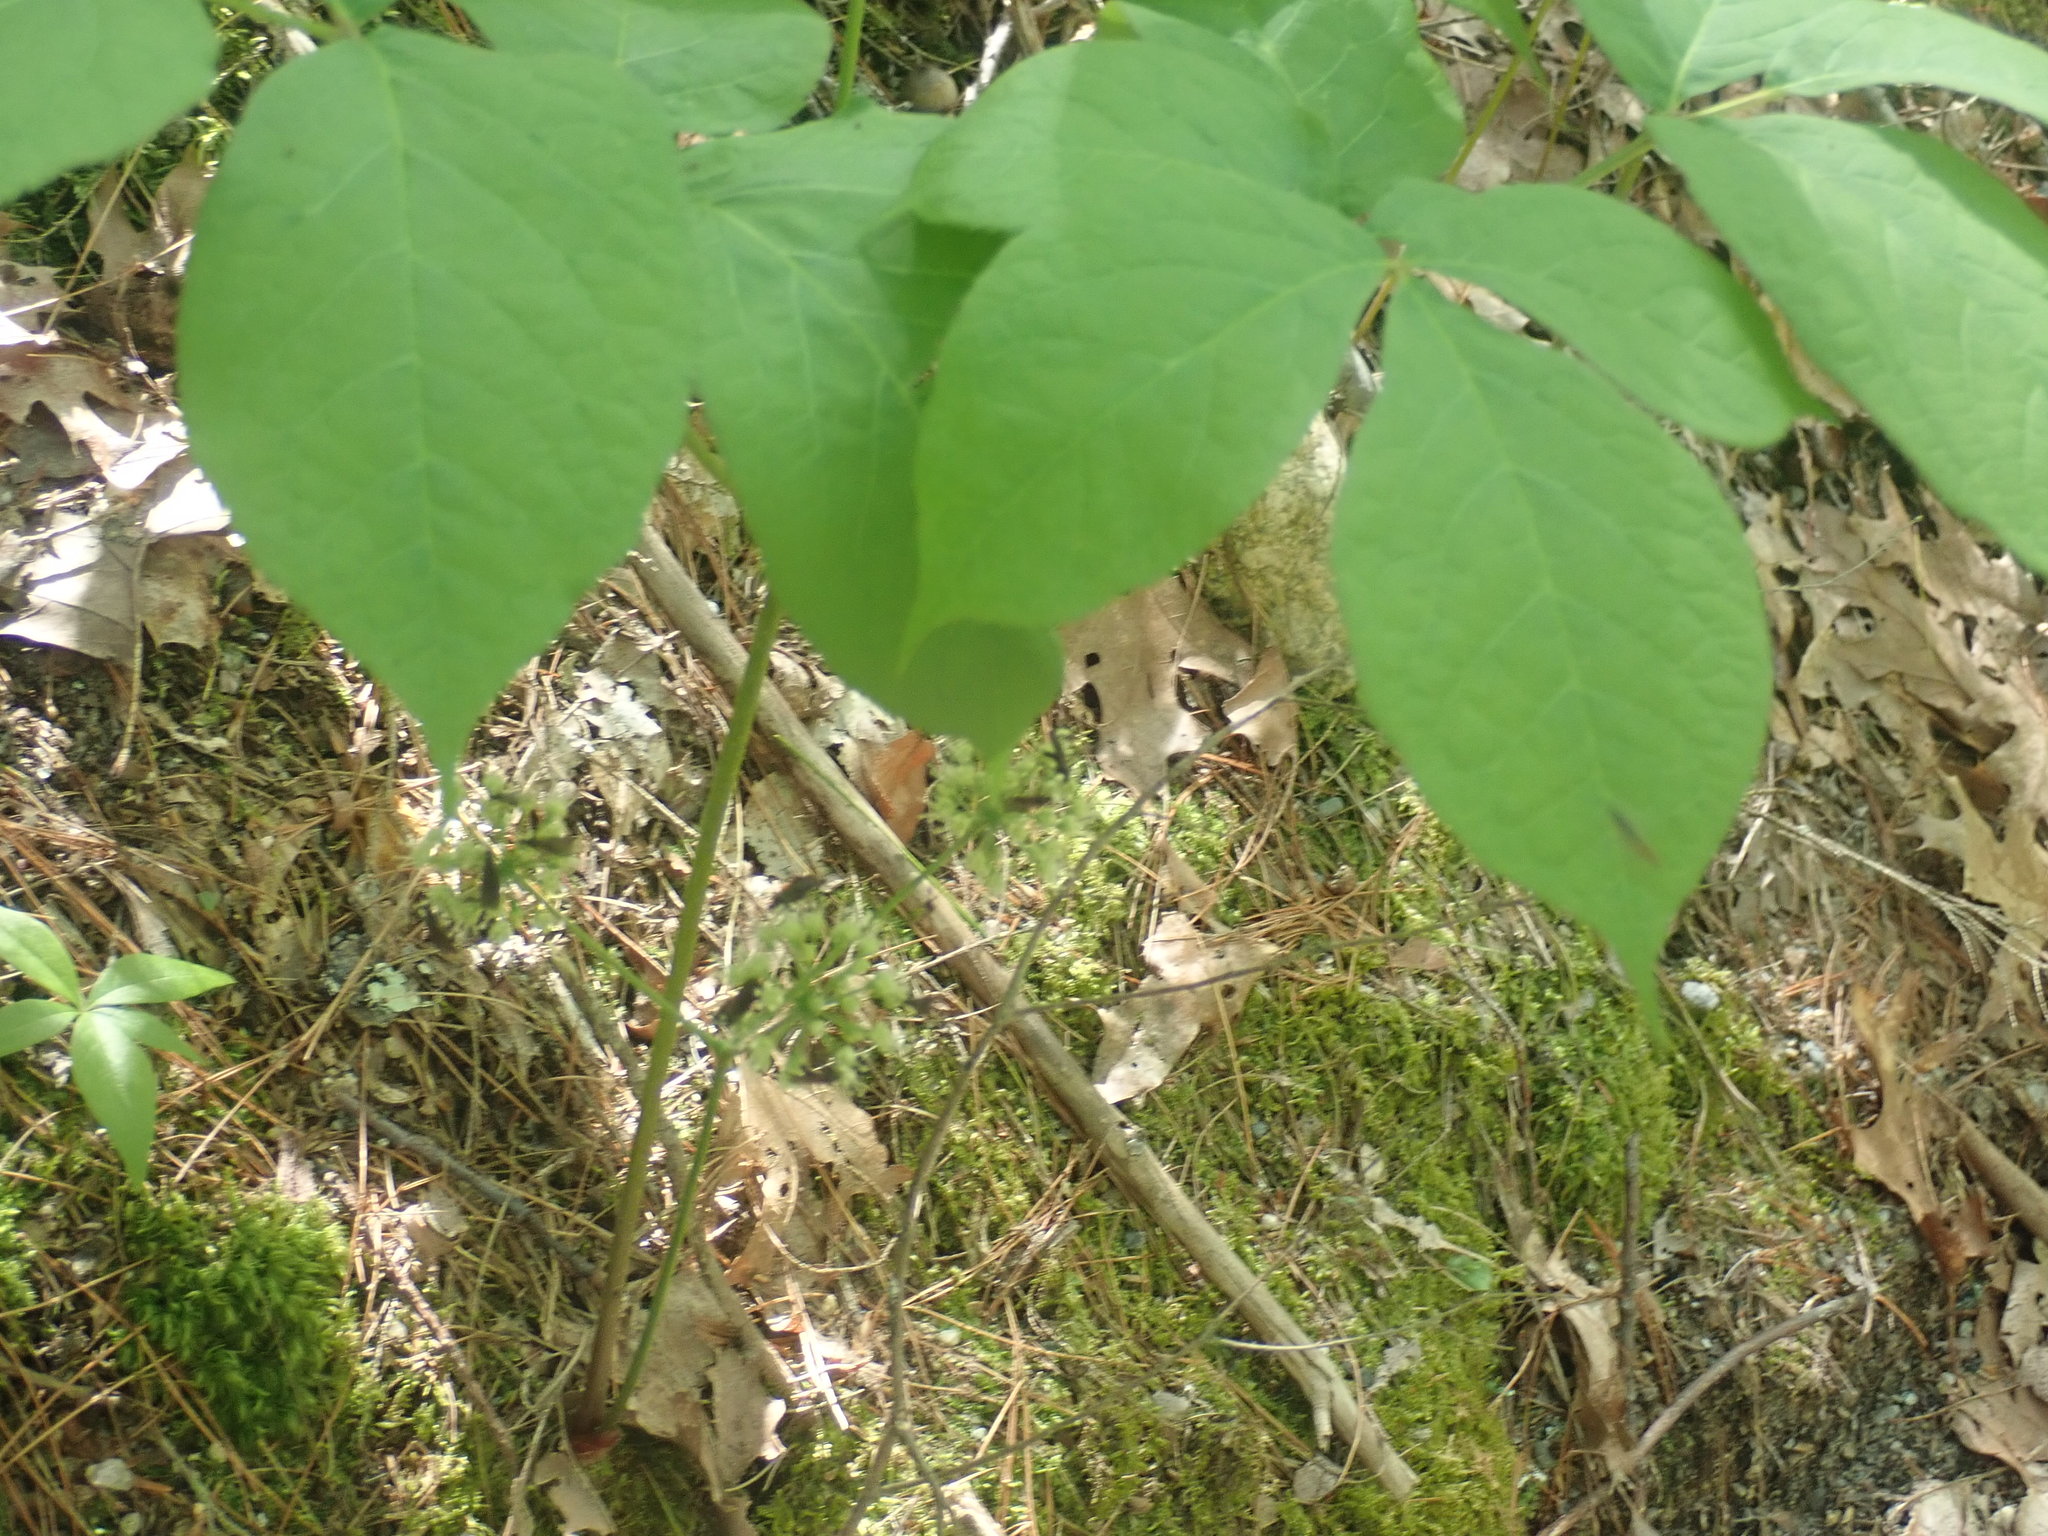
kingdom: Plantae
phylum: Tracheophyta
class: Magnoliopsida
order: Apiales
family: Araliaceae
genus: Aralia
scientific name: Aralia nudicaulis
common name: Wild sarsaparilla
